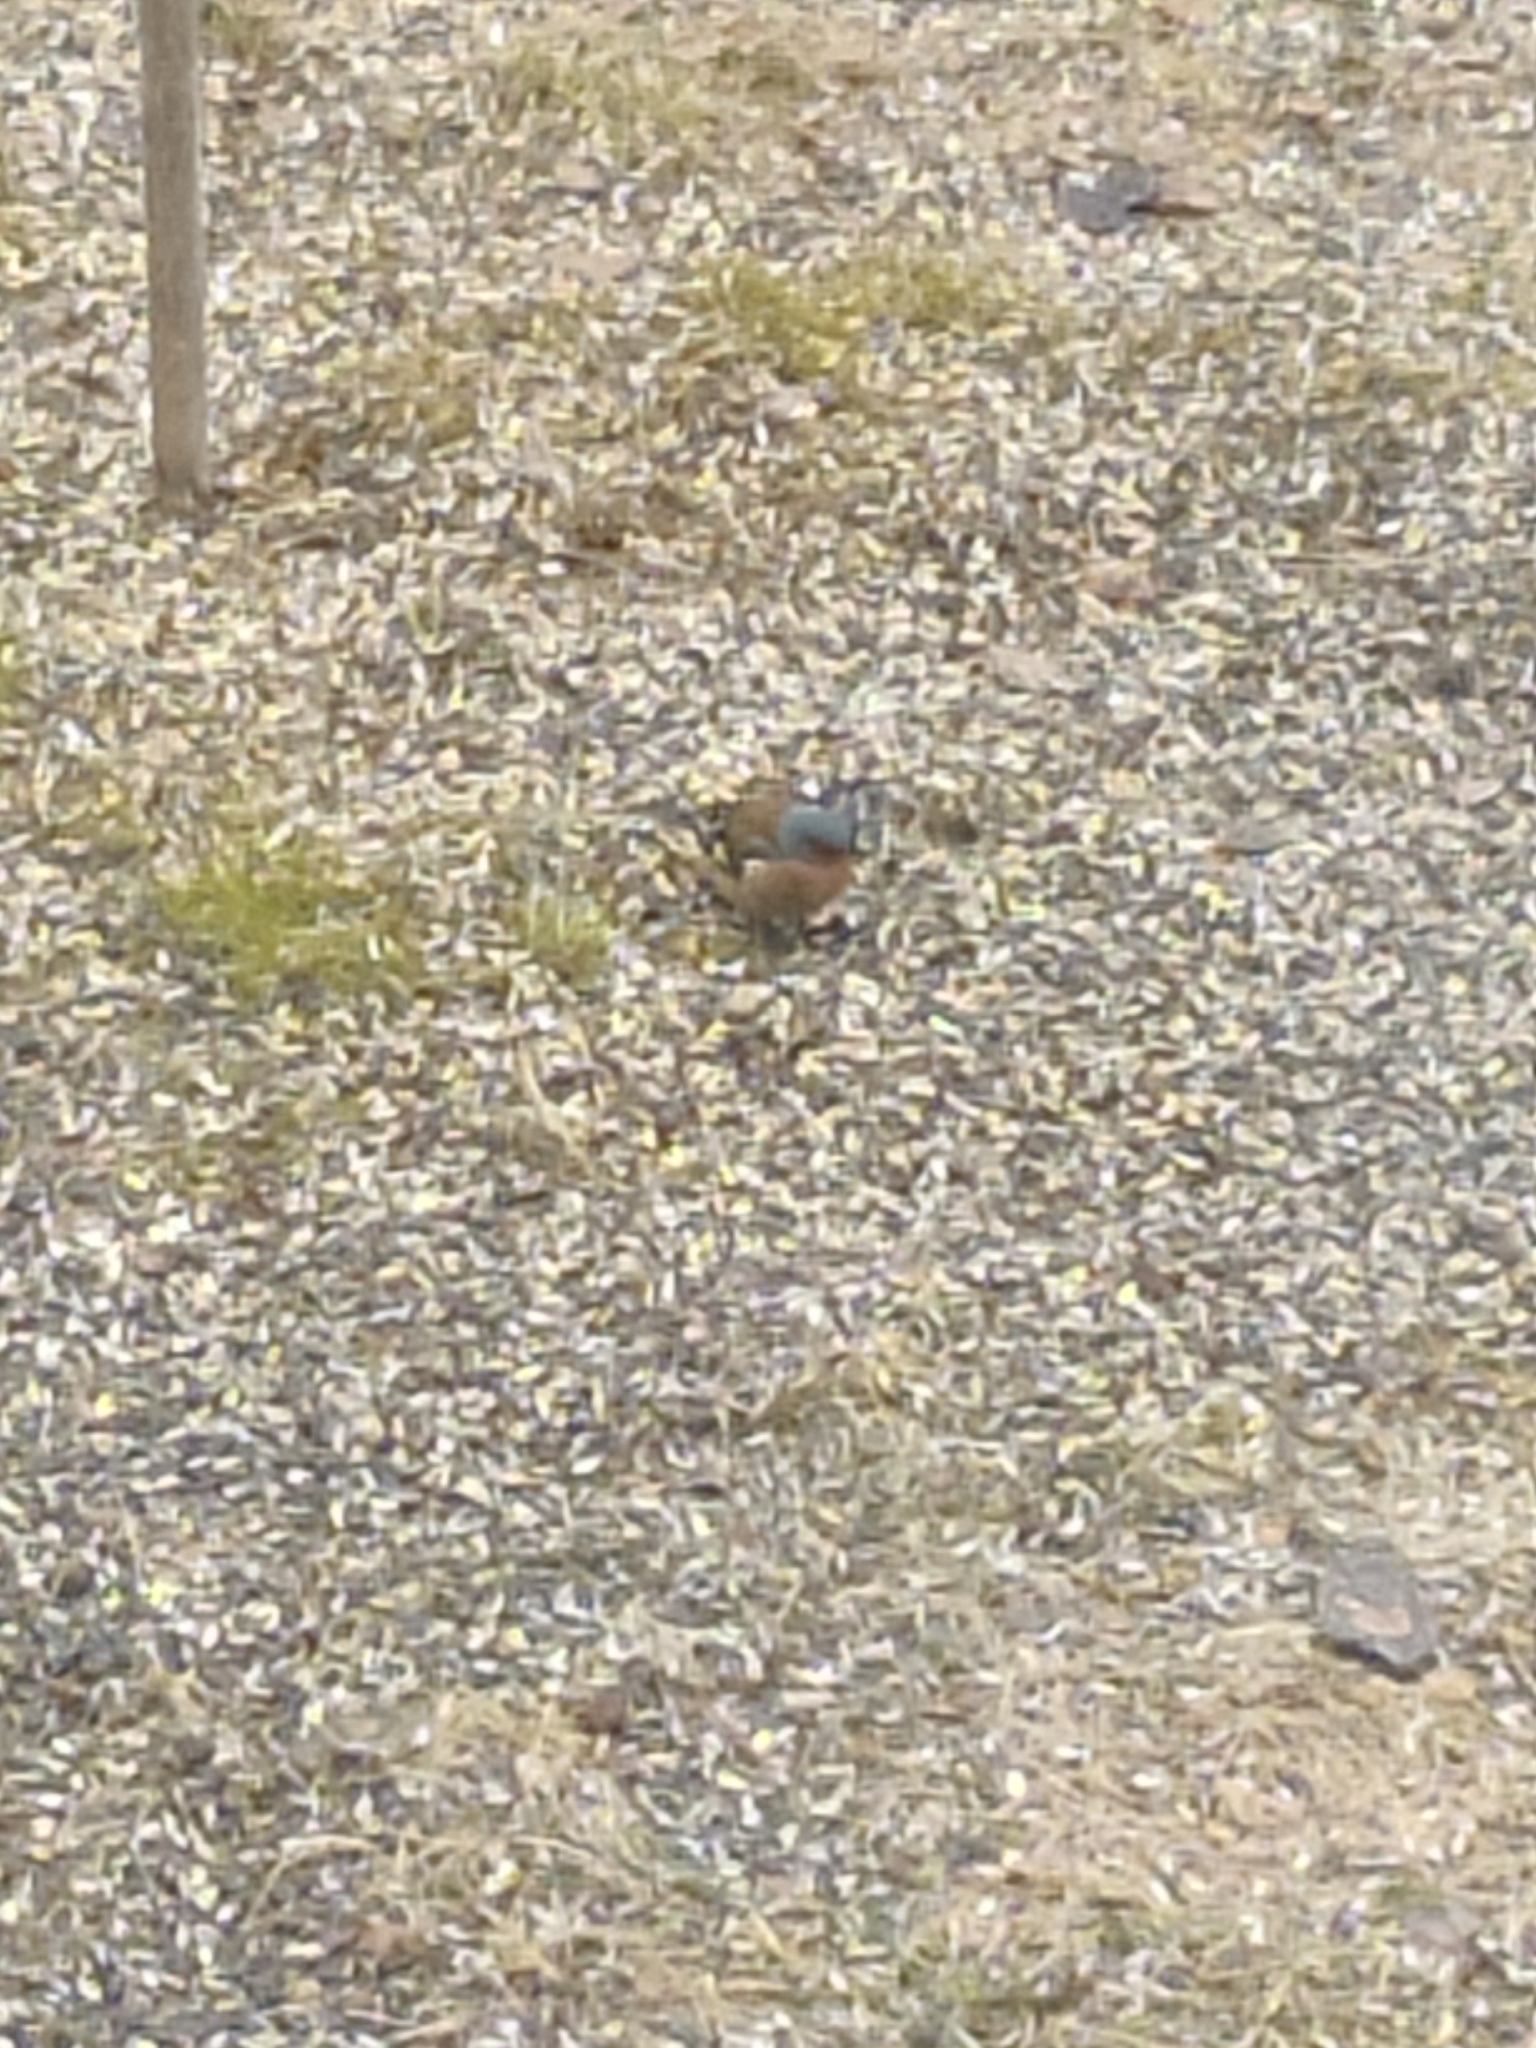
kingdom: Animalia
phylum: Chordata
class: Aves
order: Passeriformes
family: Fringillidae
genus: Fringilla
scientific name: Fringilla coelebs
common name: Common chaffinch
